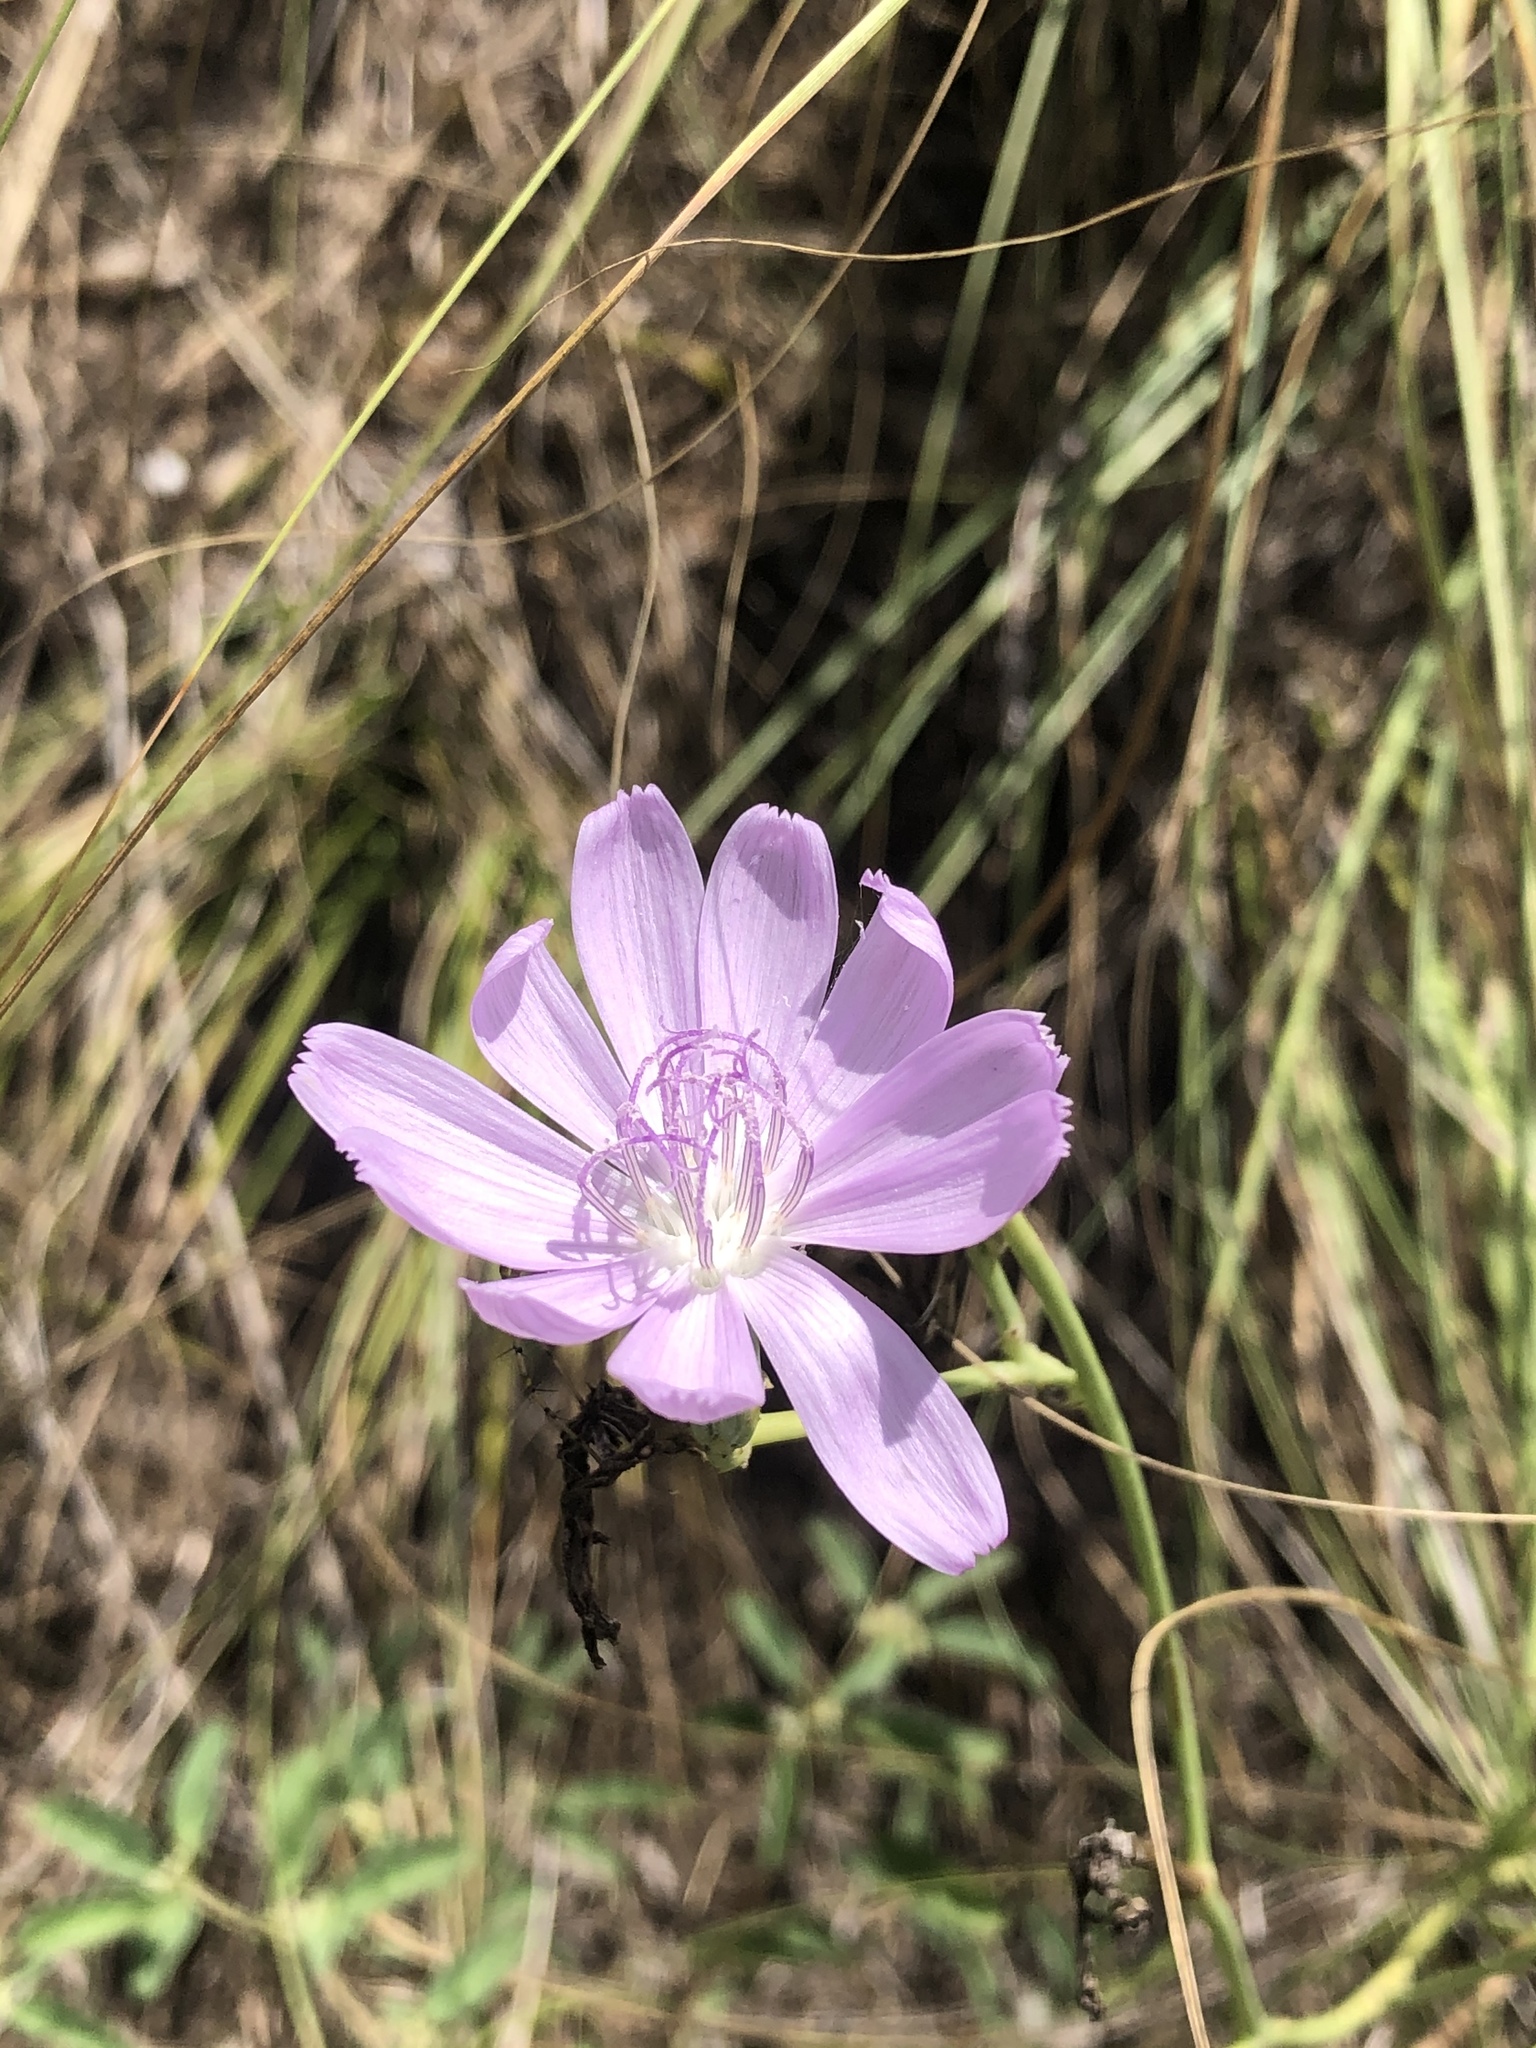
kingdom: Plantae
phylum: Tracheophyta
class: Magnoliopsida
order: Asterales
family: Asteraceae
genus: Lygodesmia
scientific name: Lygodesmia texana
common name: Texas skeleton-plant
